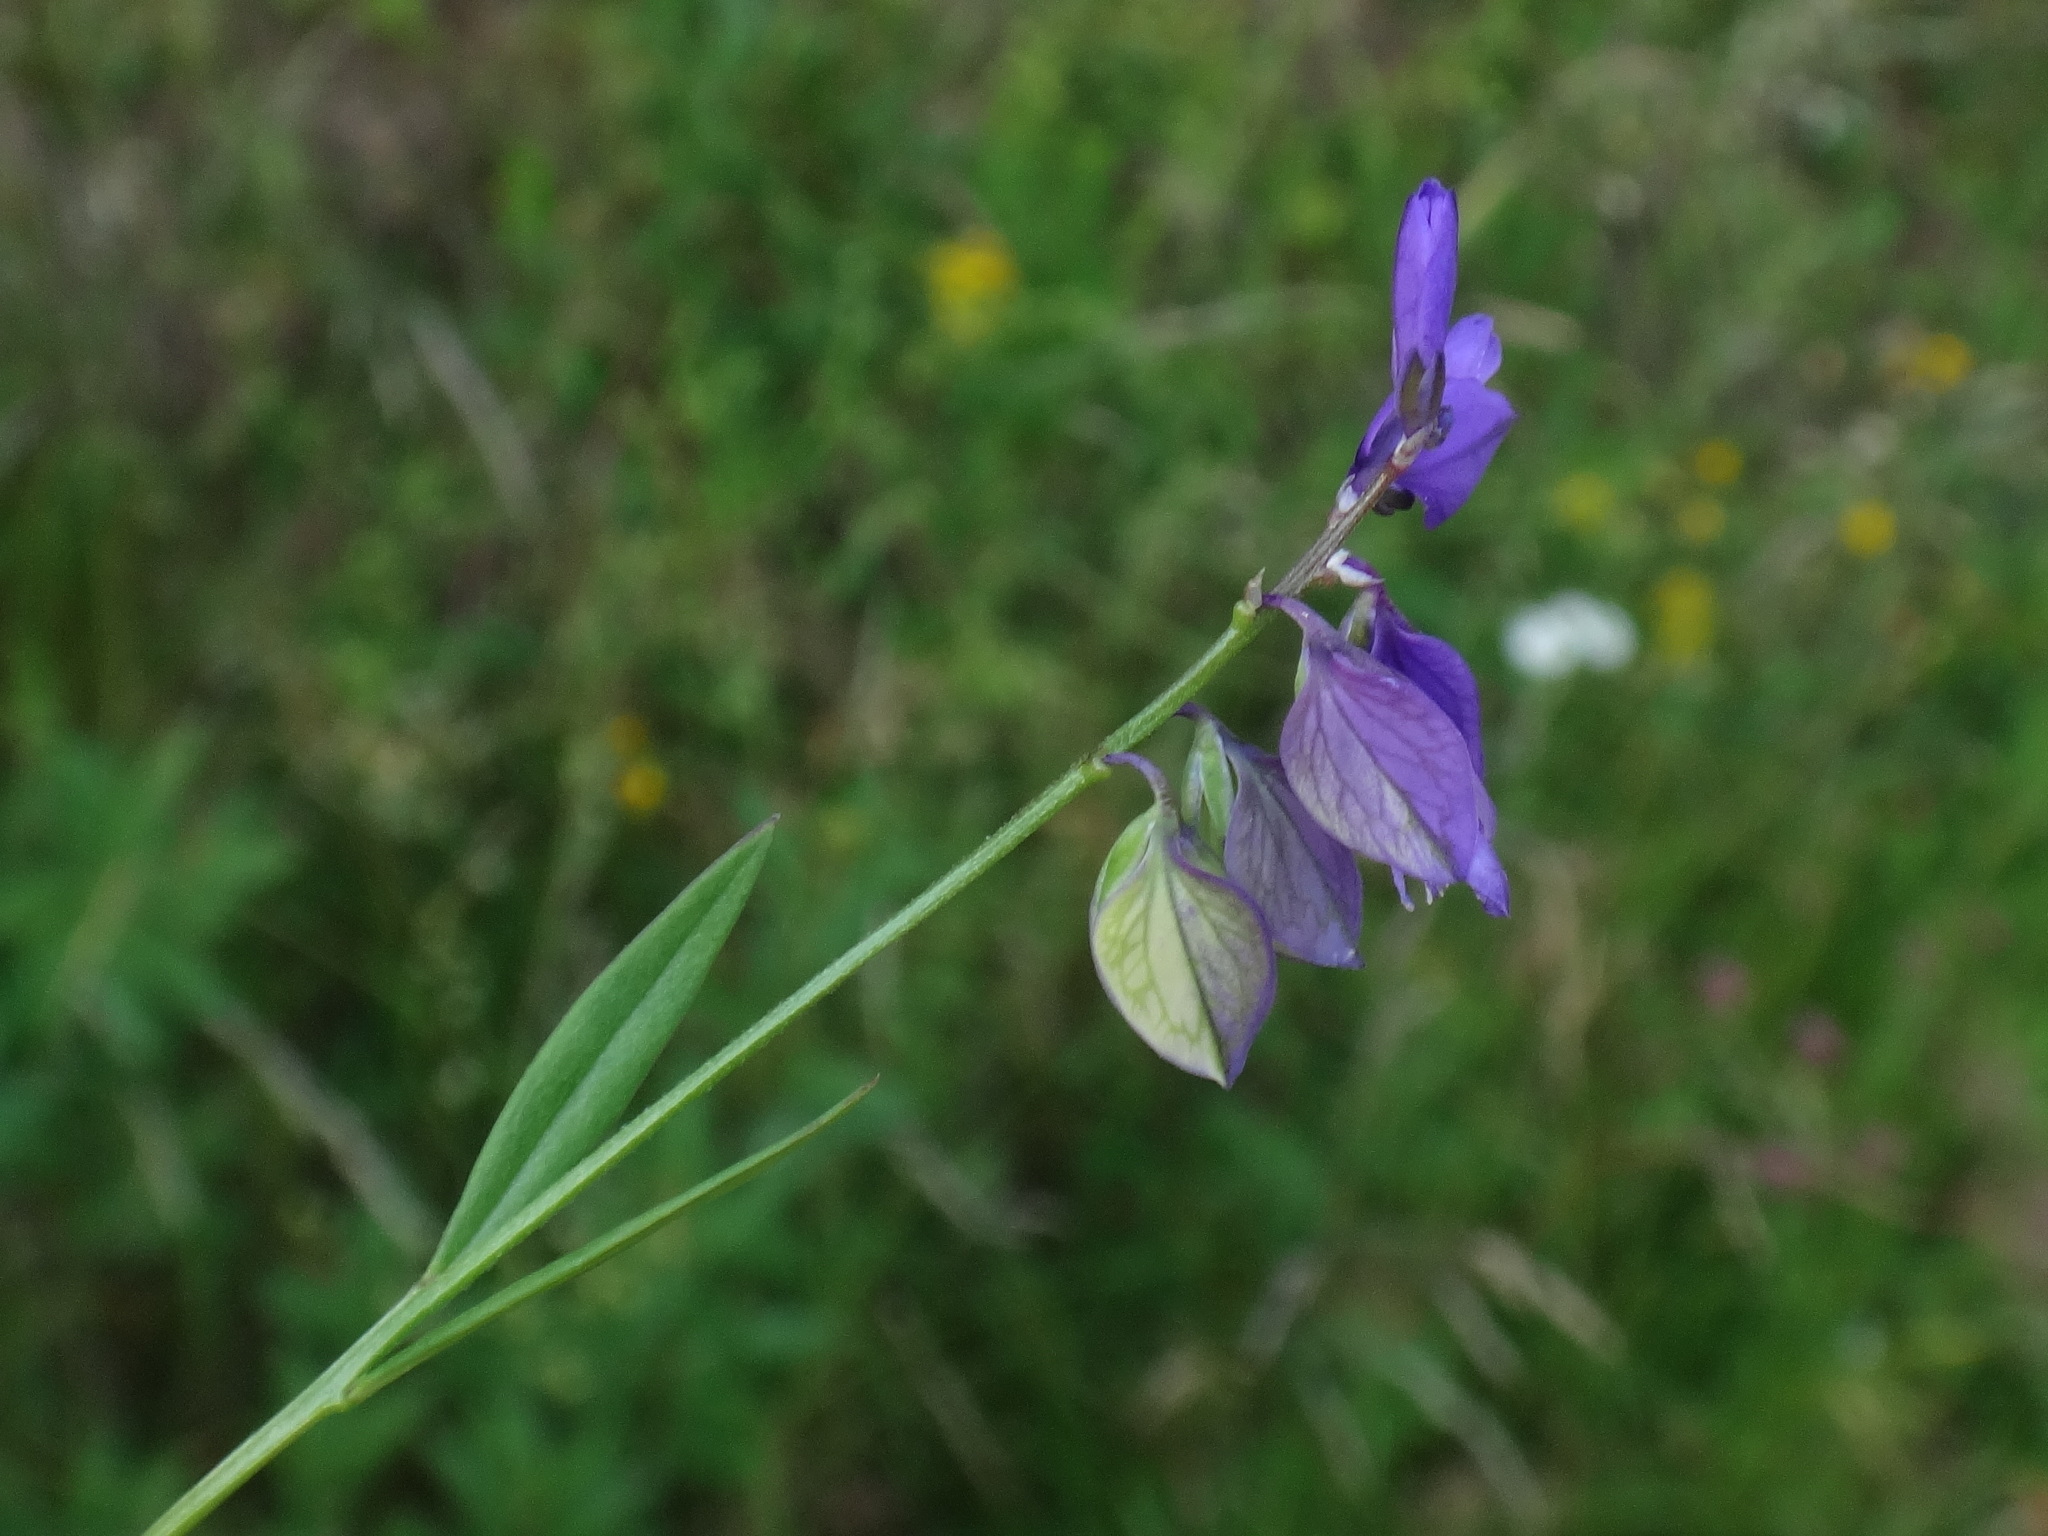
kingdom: Plantae
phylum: Tracheophyta
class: Magnoliopsida
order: Fabales
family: Polygalaceae
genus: Polygala
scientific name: Polygala vulgaris
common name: Common milkwort
